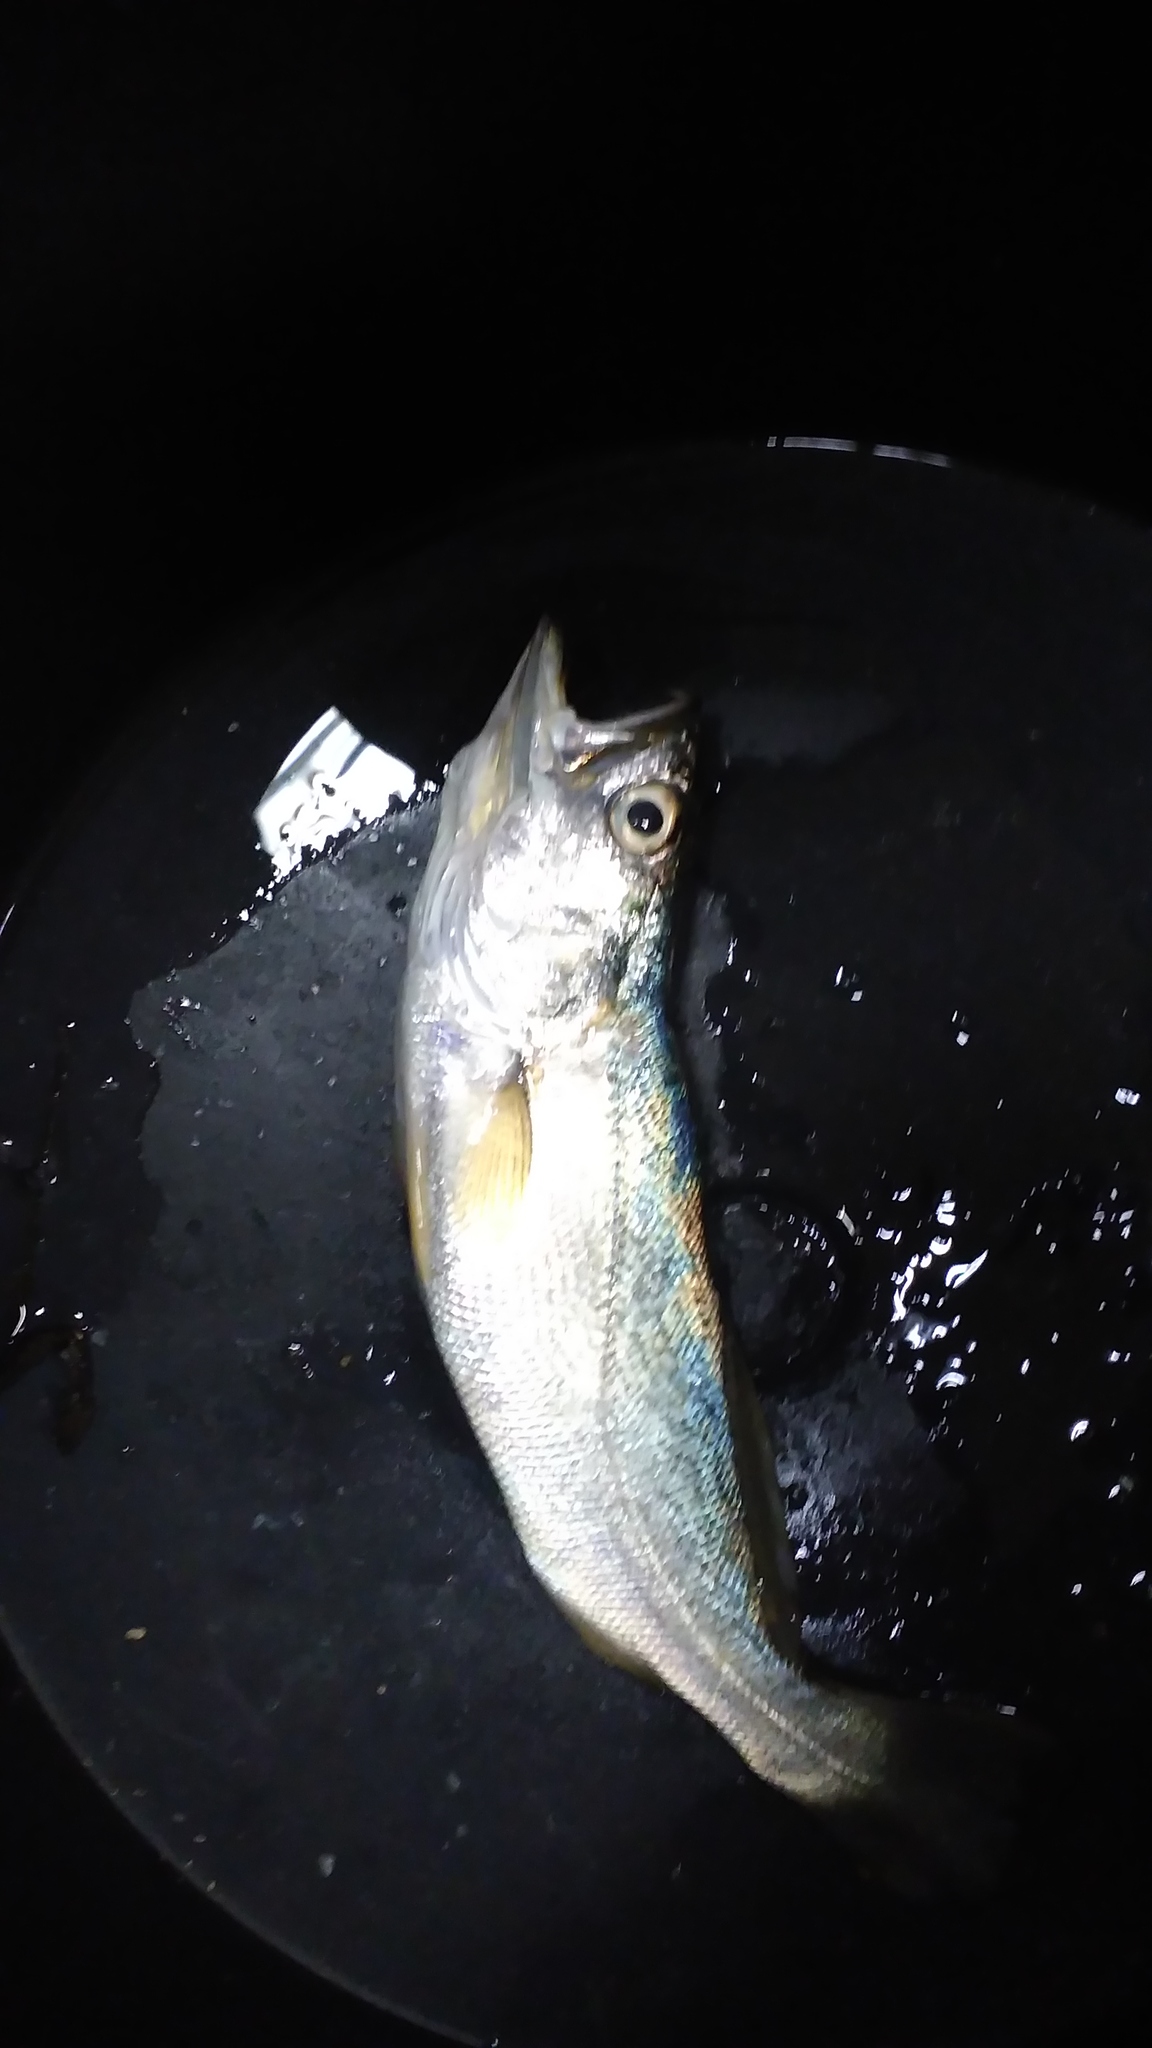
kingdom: Animalia
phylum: Chordata
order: Perciformes
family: Sciaenidae
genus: Cynoscion
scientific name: Cynoscion regalis
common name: Squeteague
